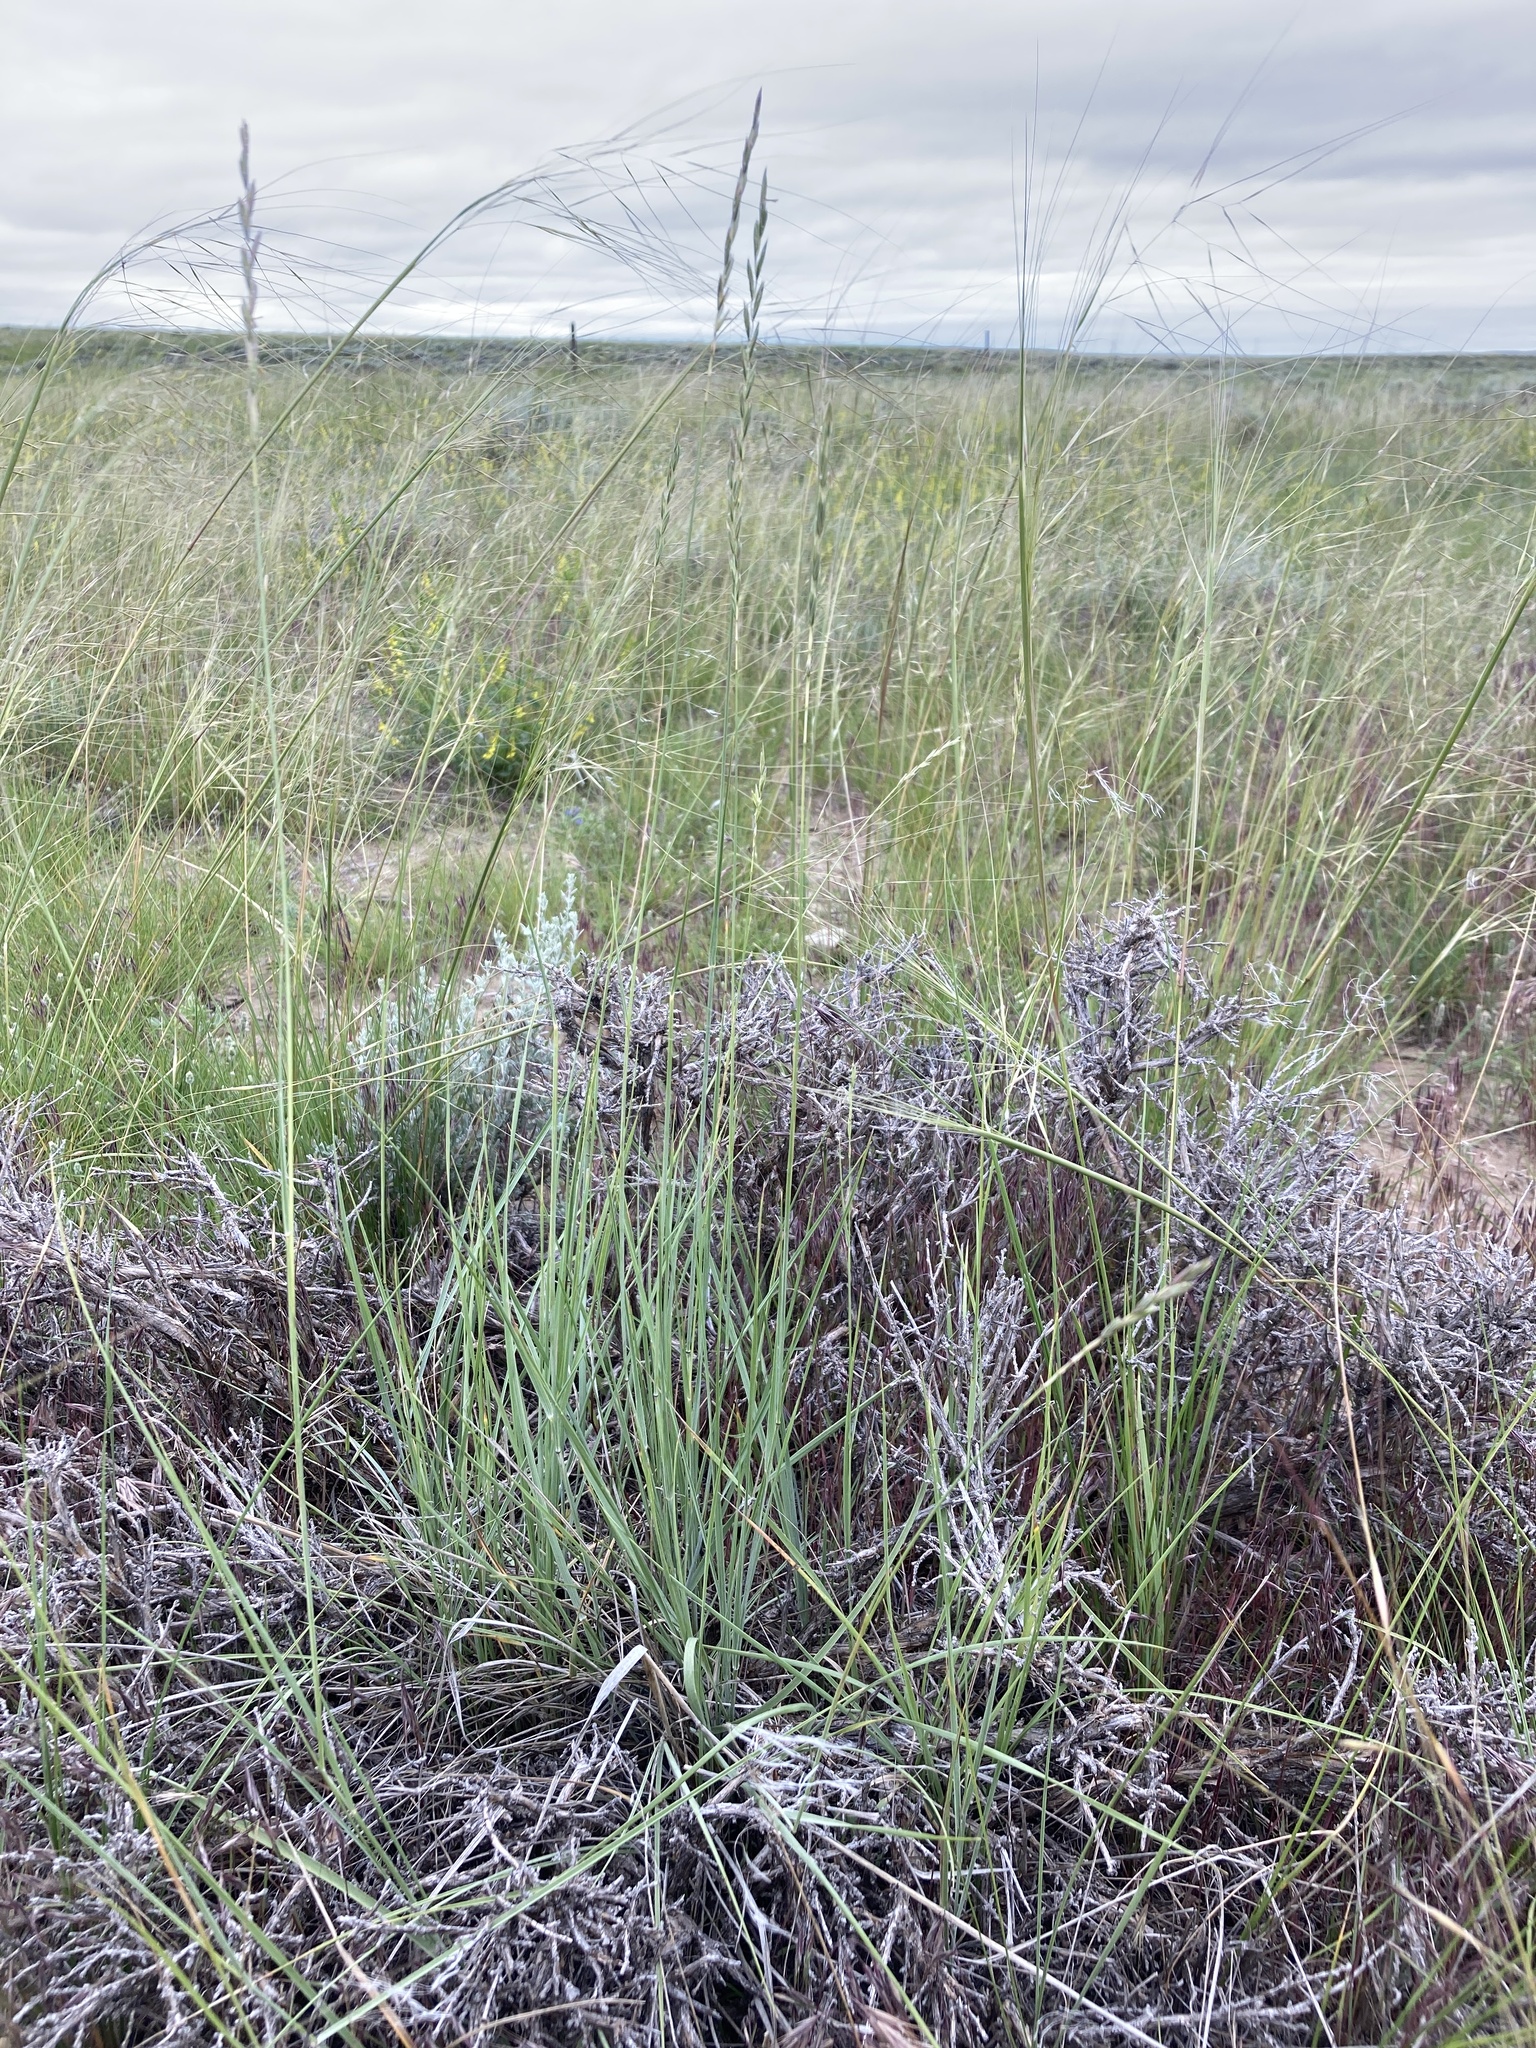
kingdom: Plantae
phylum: Tracheophyta
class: Liliopsida
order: Poales
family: Poaceae
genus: Elymus
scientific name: Elymus lanceolatus
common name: Thick-spike wheatgrass
